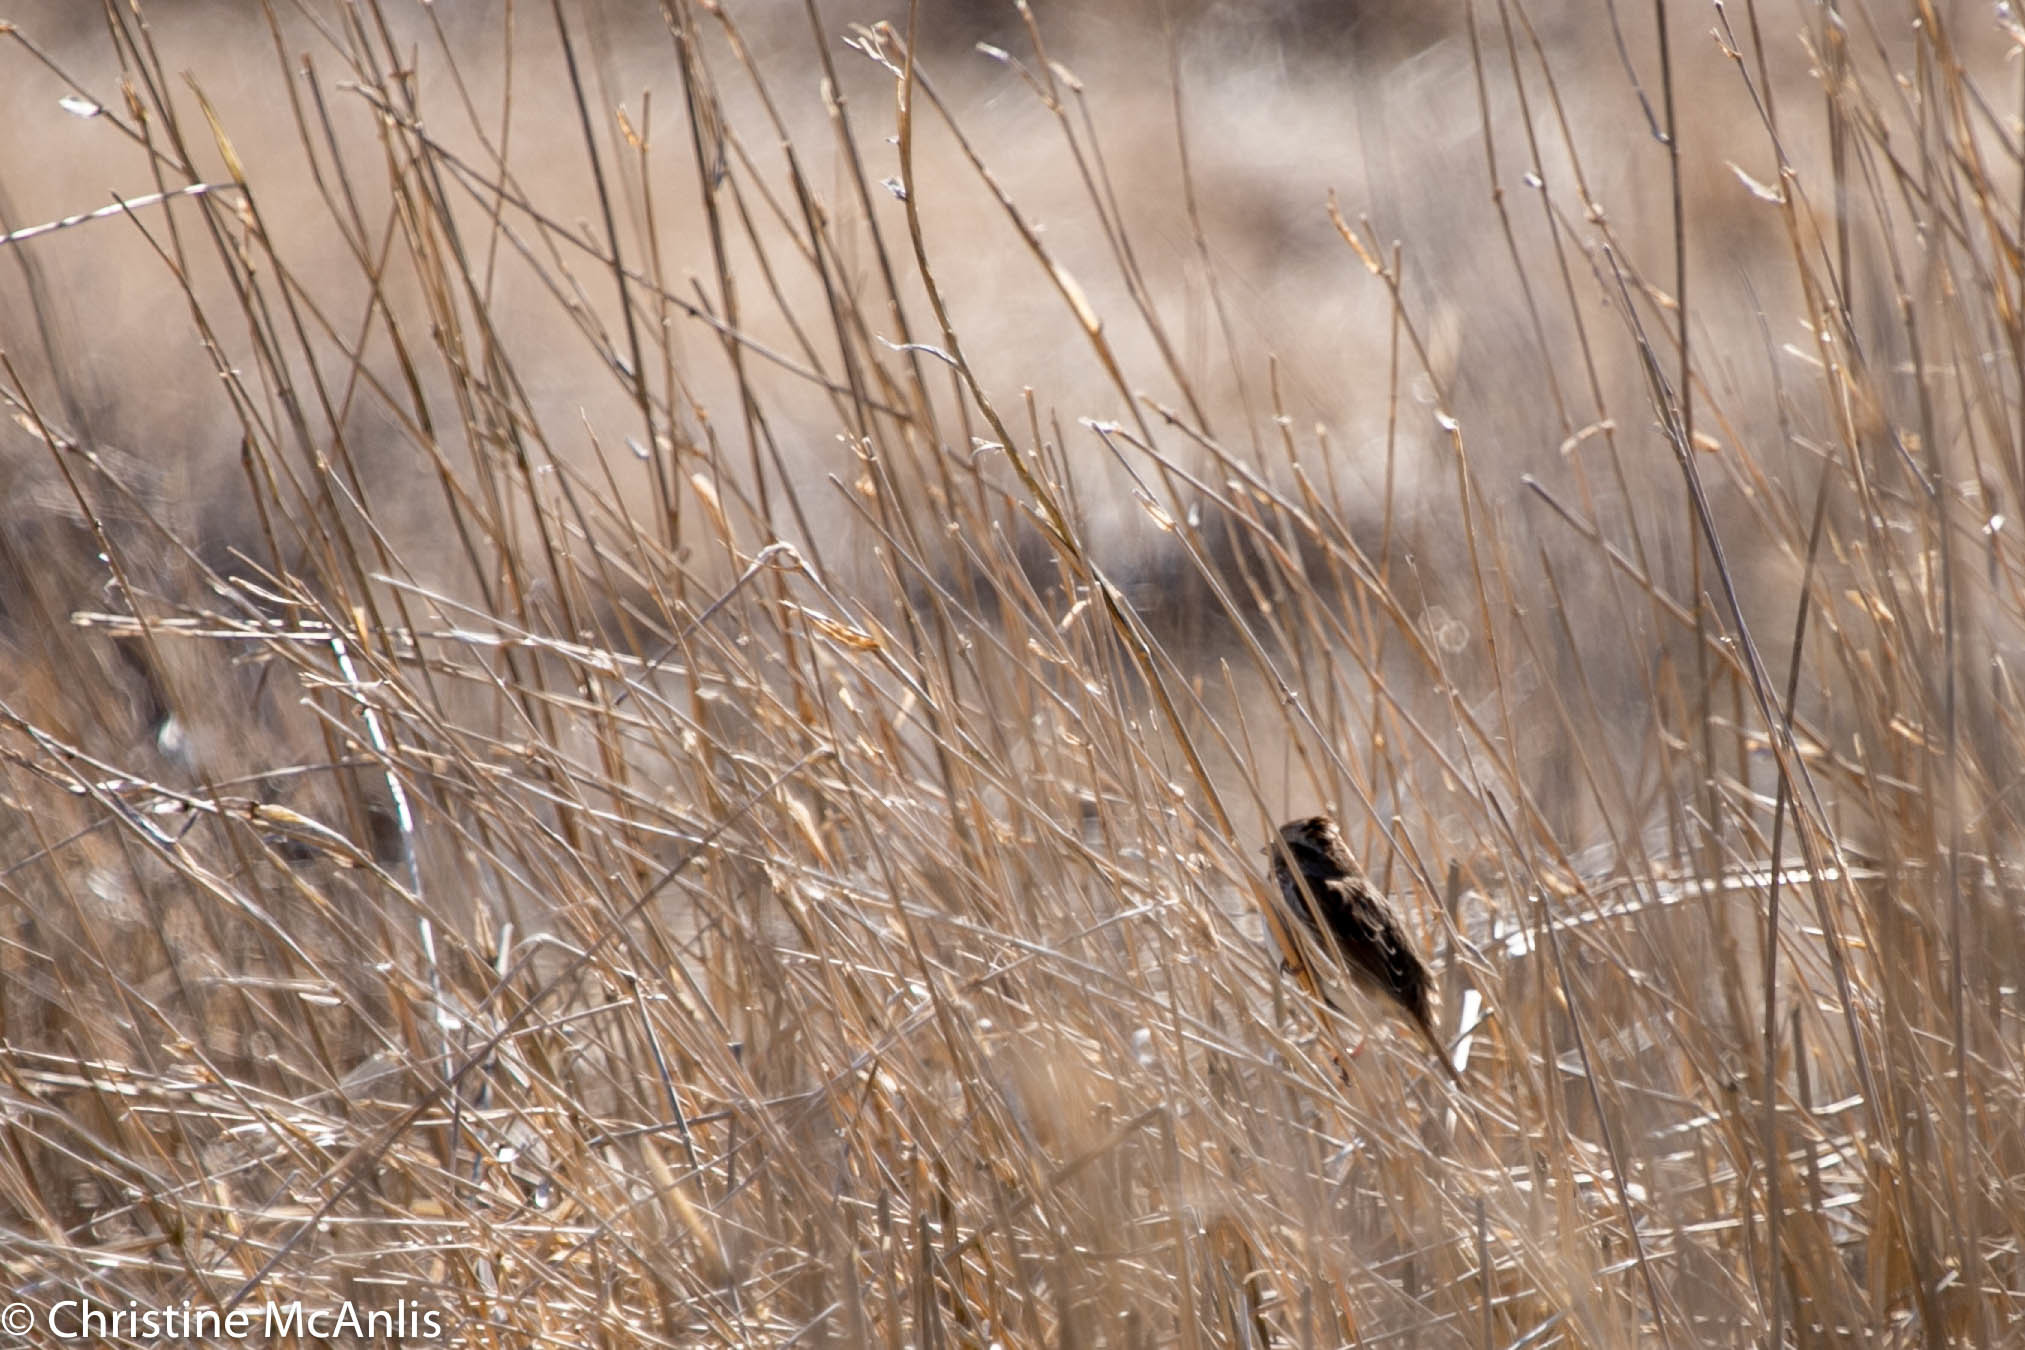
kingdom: Animalia
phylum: Chordata
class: Aves
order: Passeriformes
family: Passerellidae
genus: Melospiza
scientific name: Melospiza melodia
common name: Song sparrow
